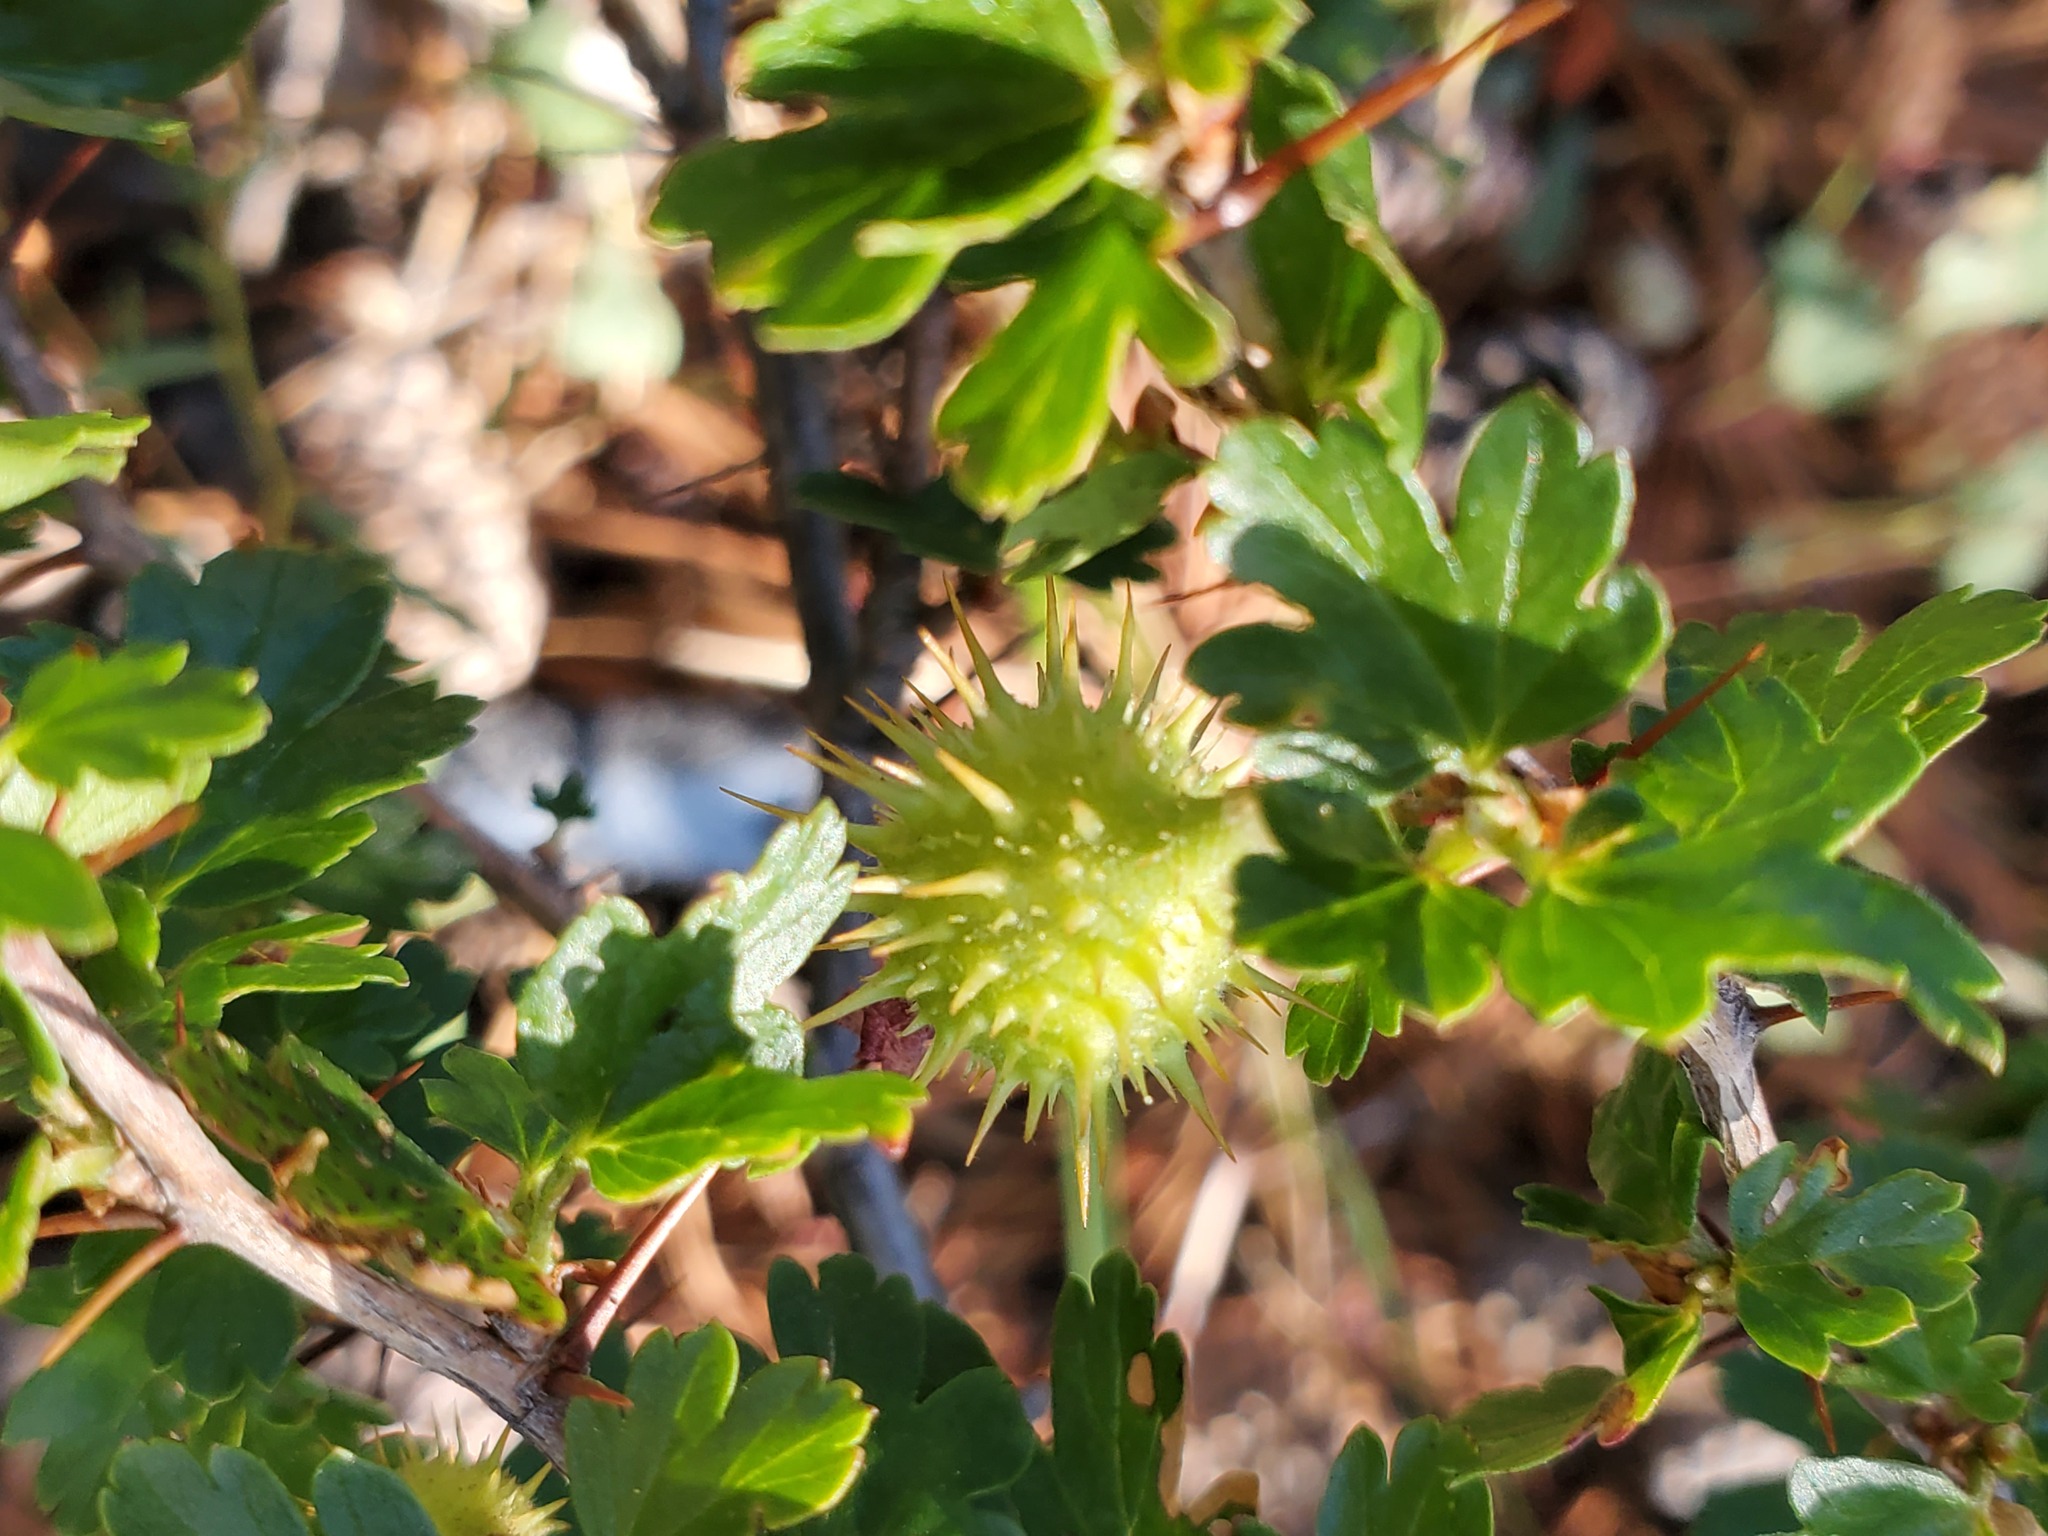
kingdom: Plantae
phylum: Tracheophyta
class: Magnoliopsida
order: Saxifragales
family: Grossulariaceae
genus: Ribes
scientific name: Ribes roezlii
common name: Sierra gooseberry
